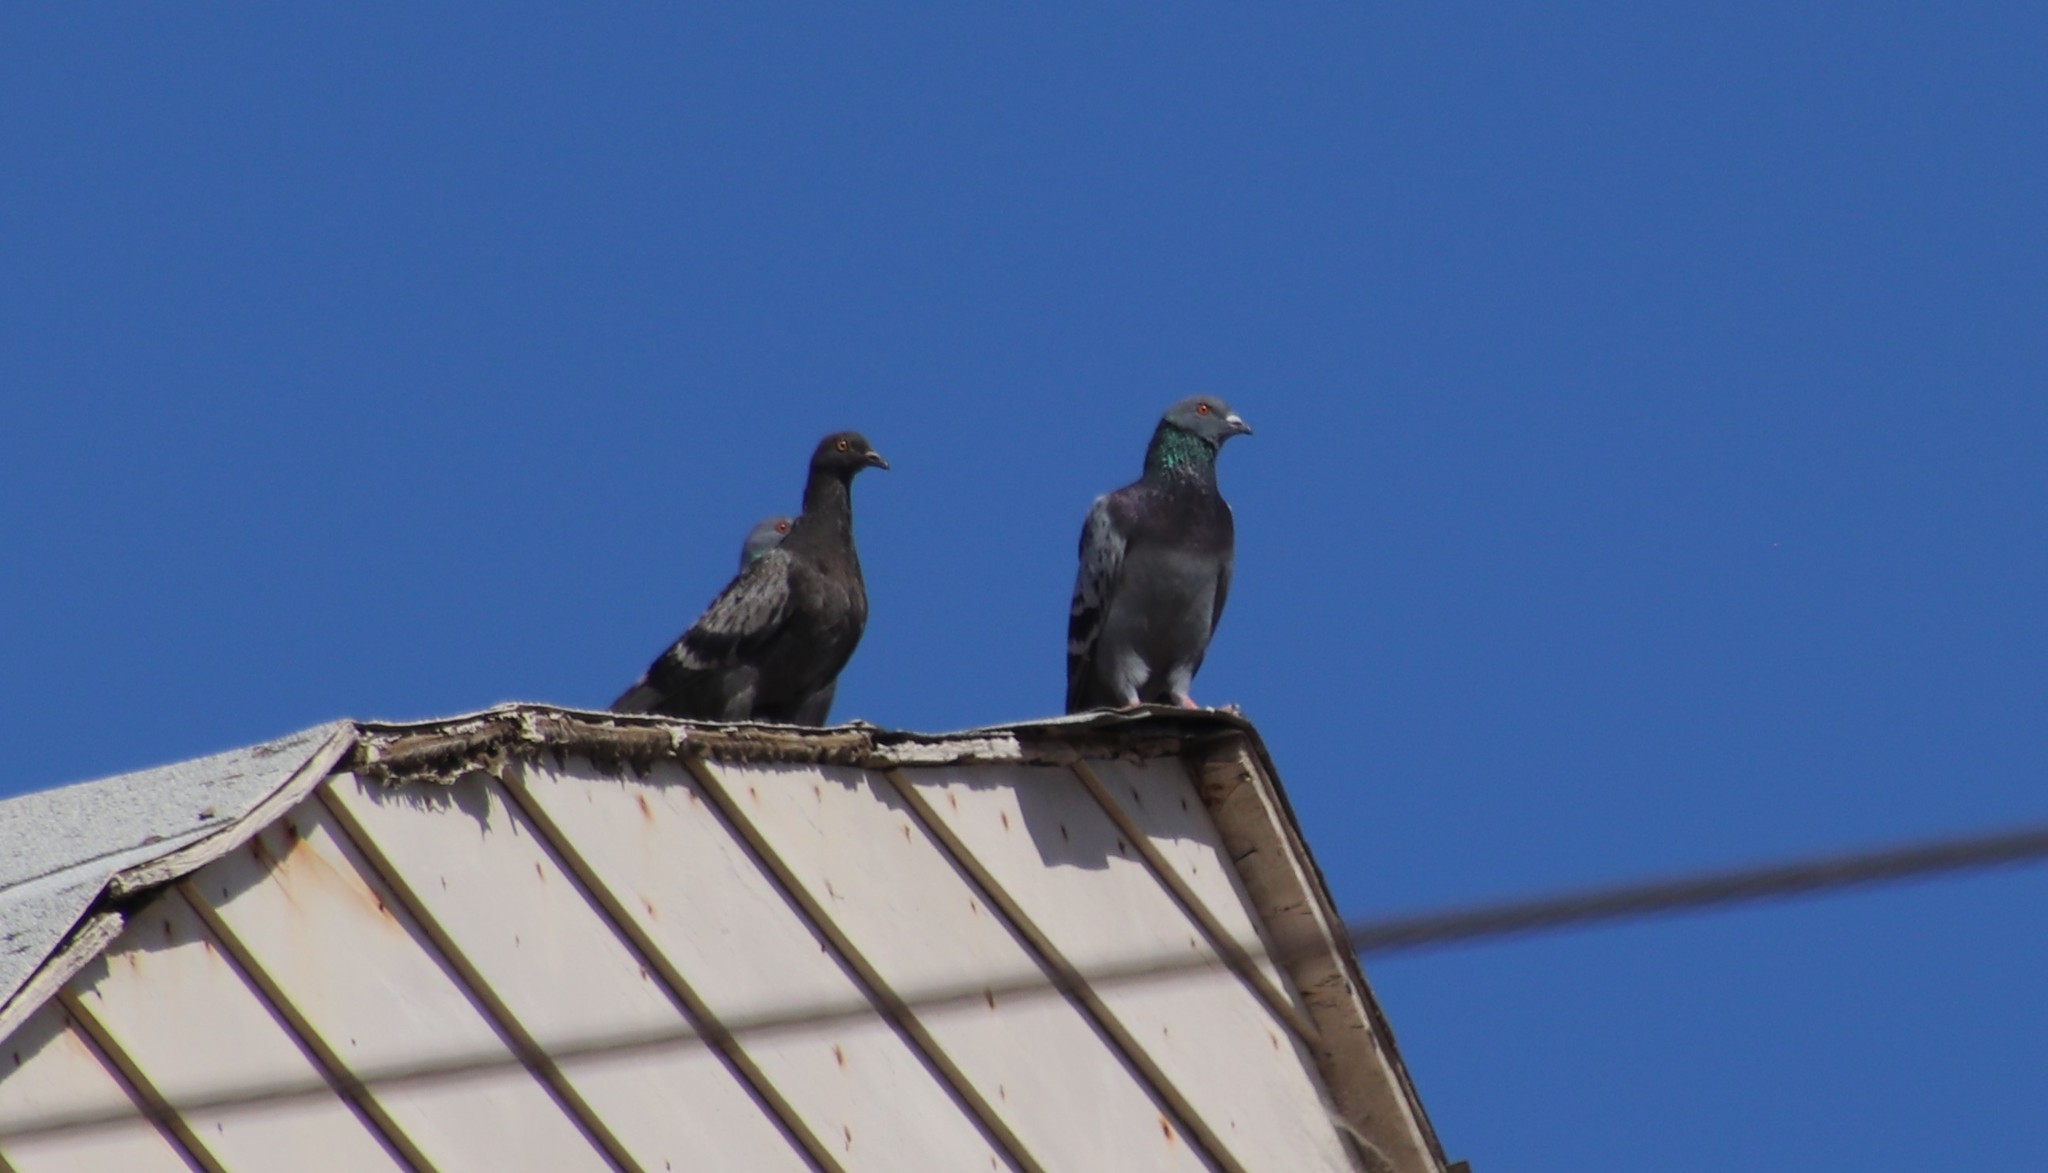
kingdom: Animalia
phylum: Chordata
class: Aves
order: Columbiformes
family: Columbidae
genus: Columba
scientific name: Columba livia
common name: Rock pigeon
